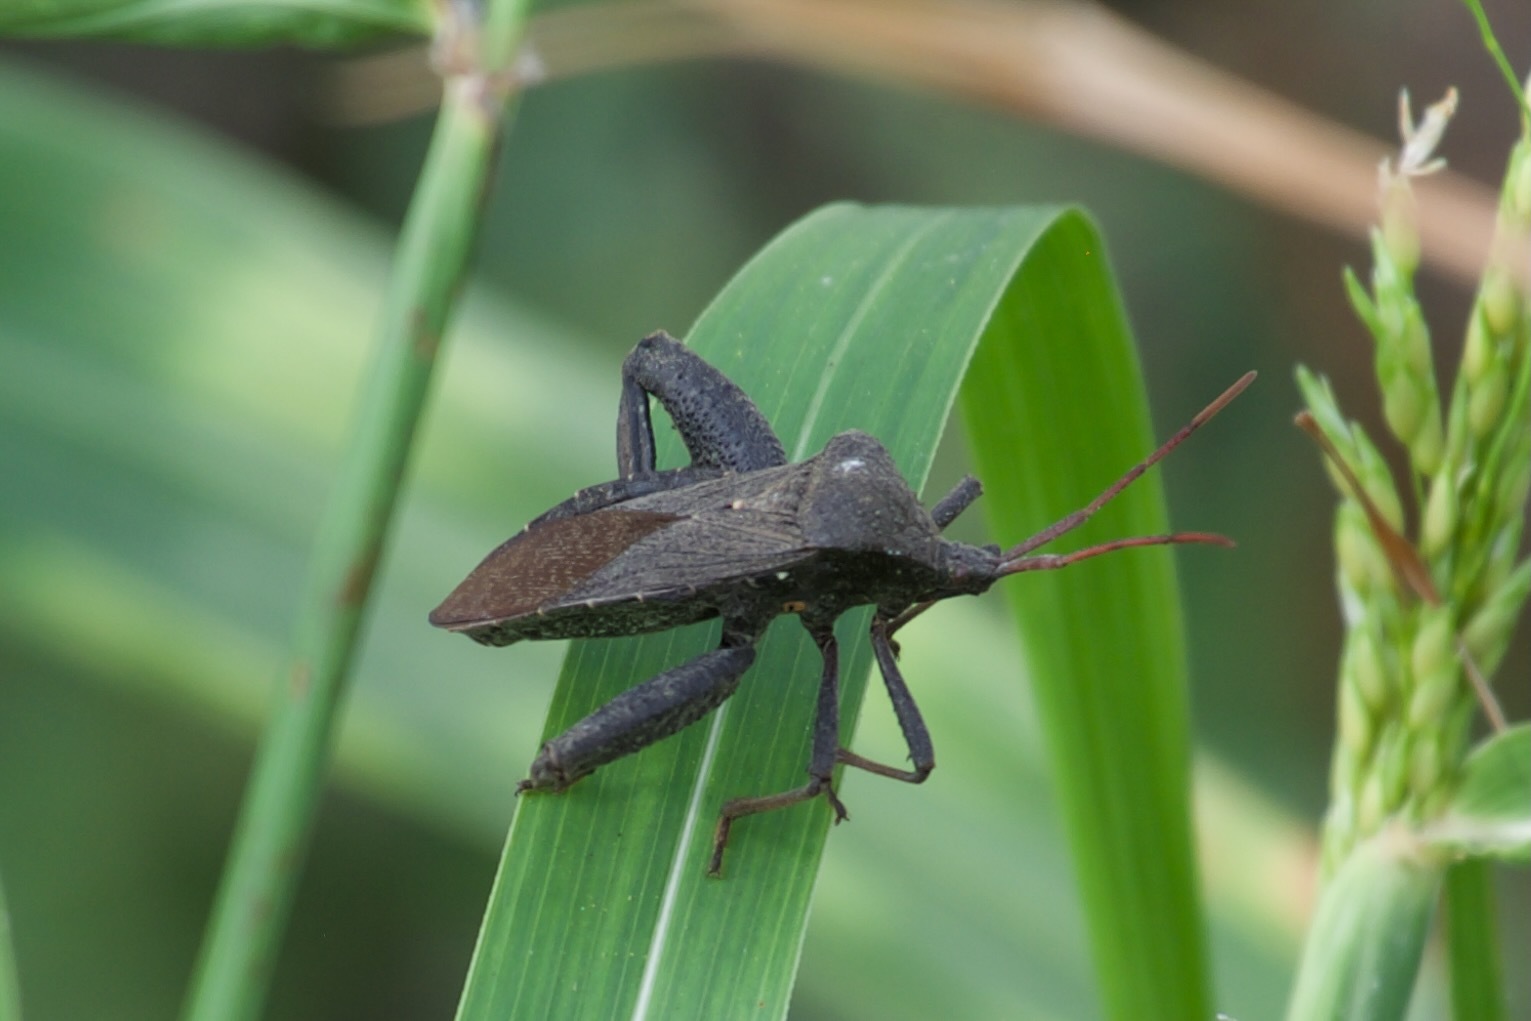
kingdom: Animalia
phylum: Arthropoda
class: Insecta
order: Hemiptera
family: Coreidae
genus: Acanthocephala
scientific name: Acanthocephala femorata
